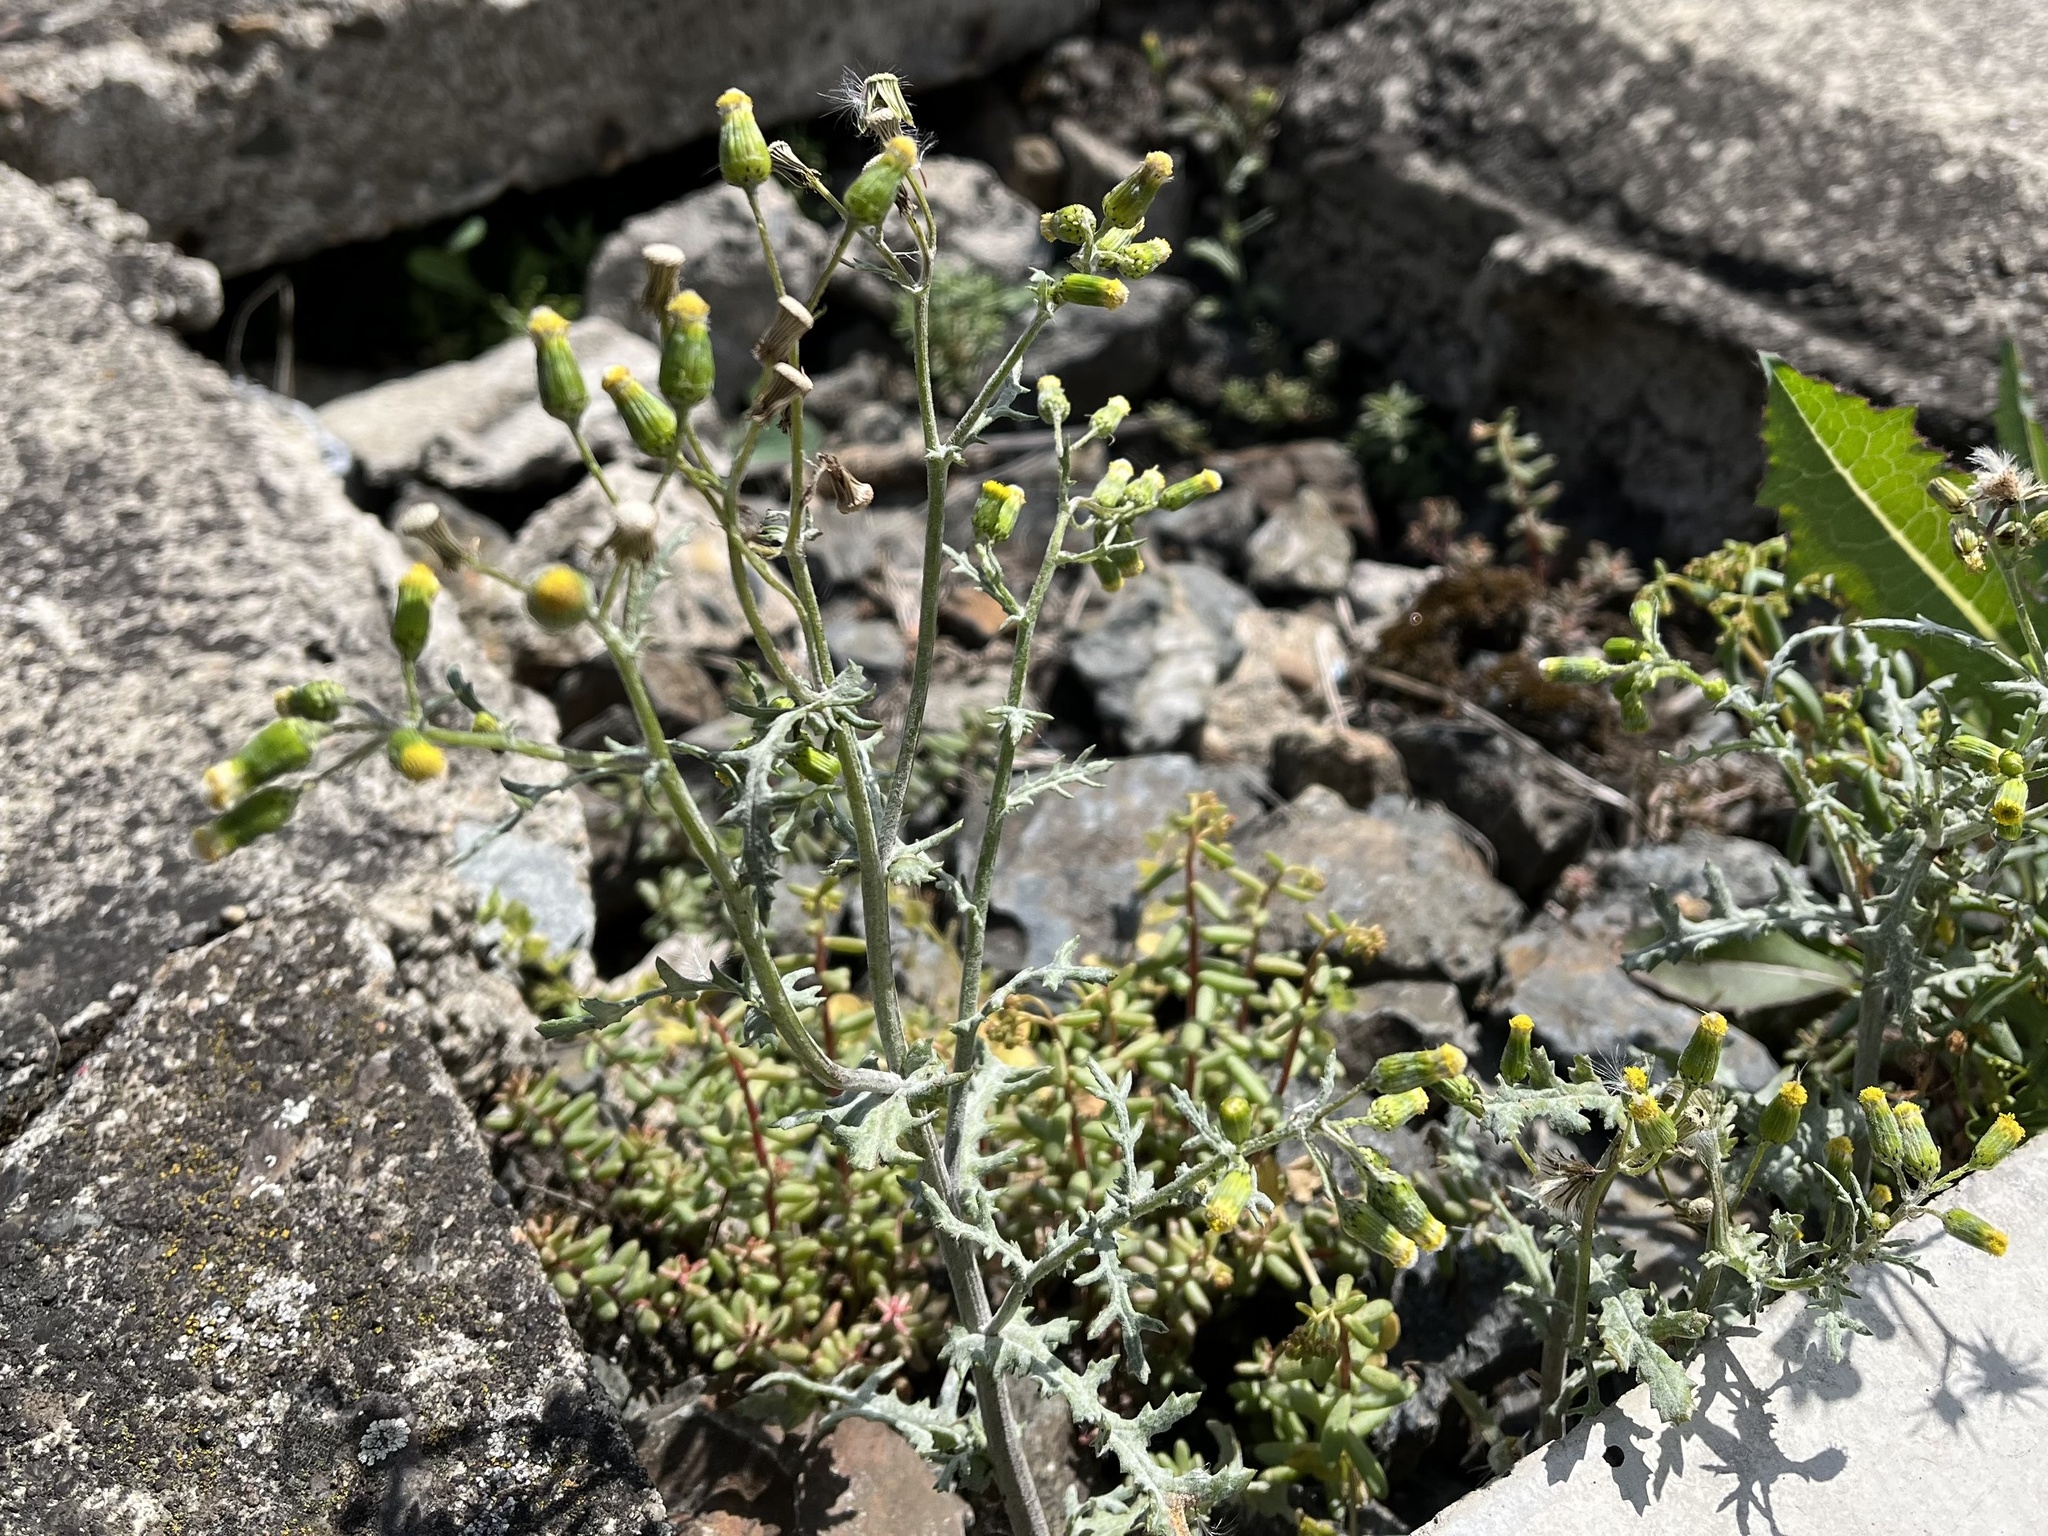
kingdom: Plantae
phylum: Tracheophyta
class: Magnoliopsida
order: Asterales
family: Asteraceae
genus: Senecio
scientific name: Senecio vulgaris
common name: Old-man-in-the-spring
